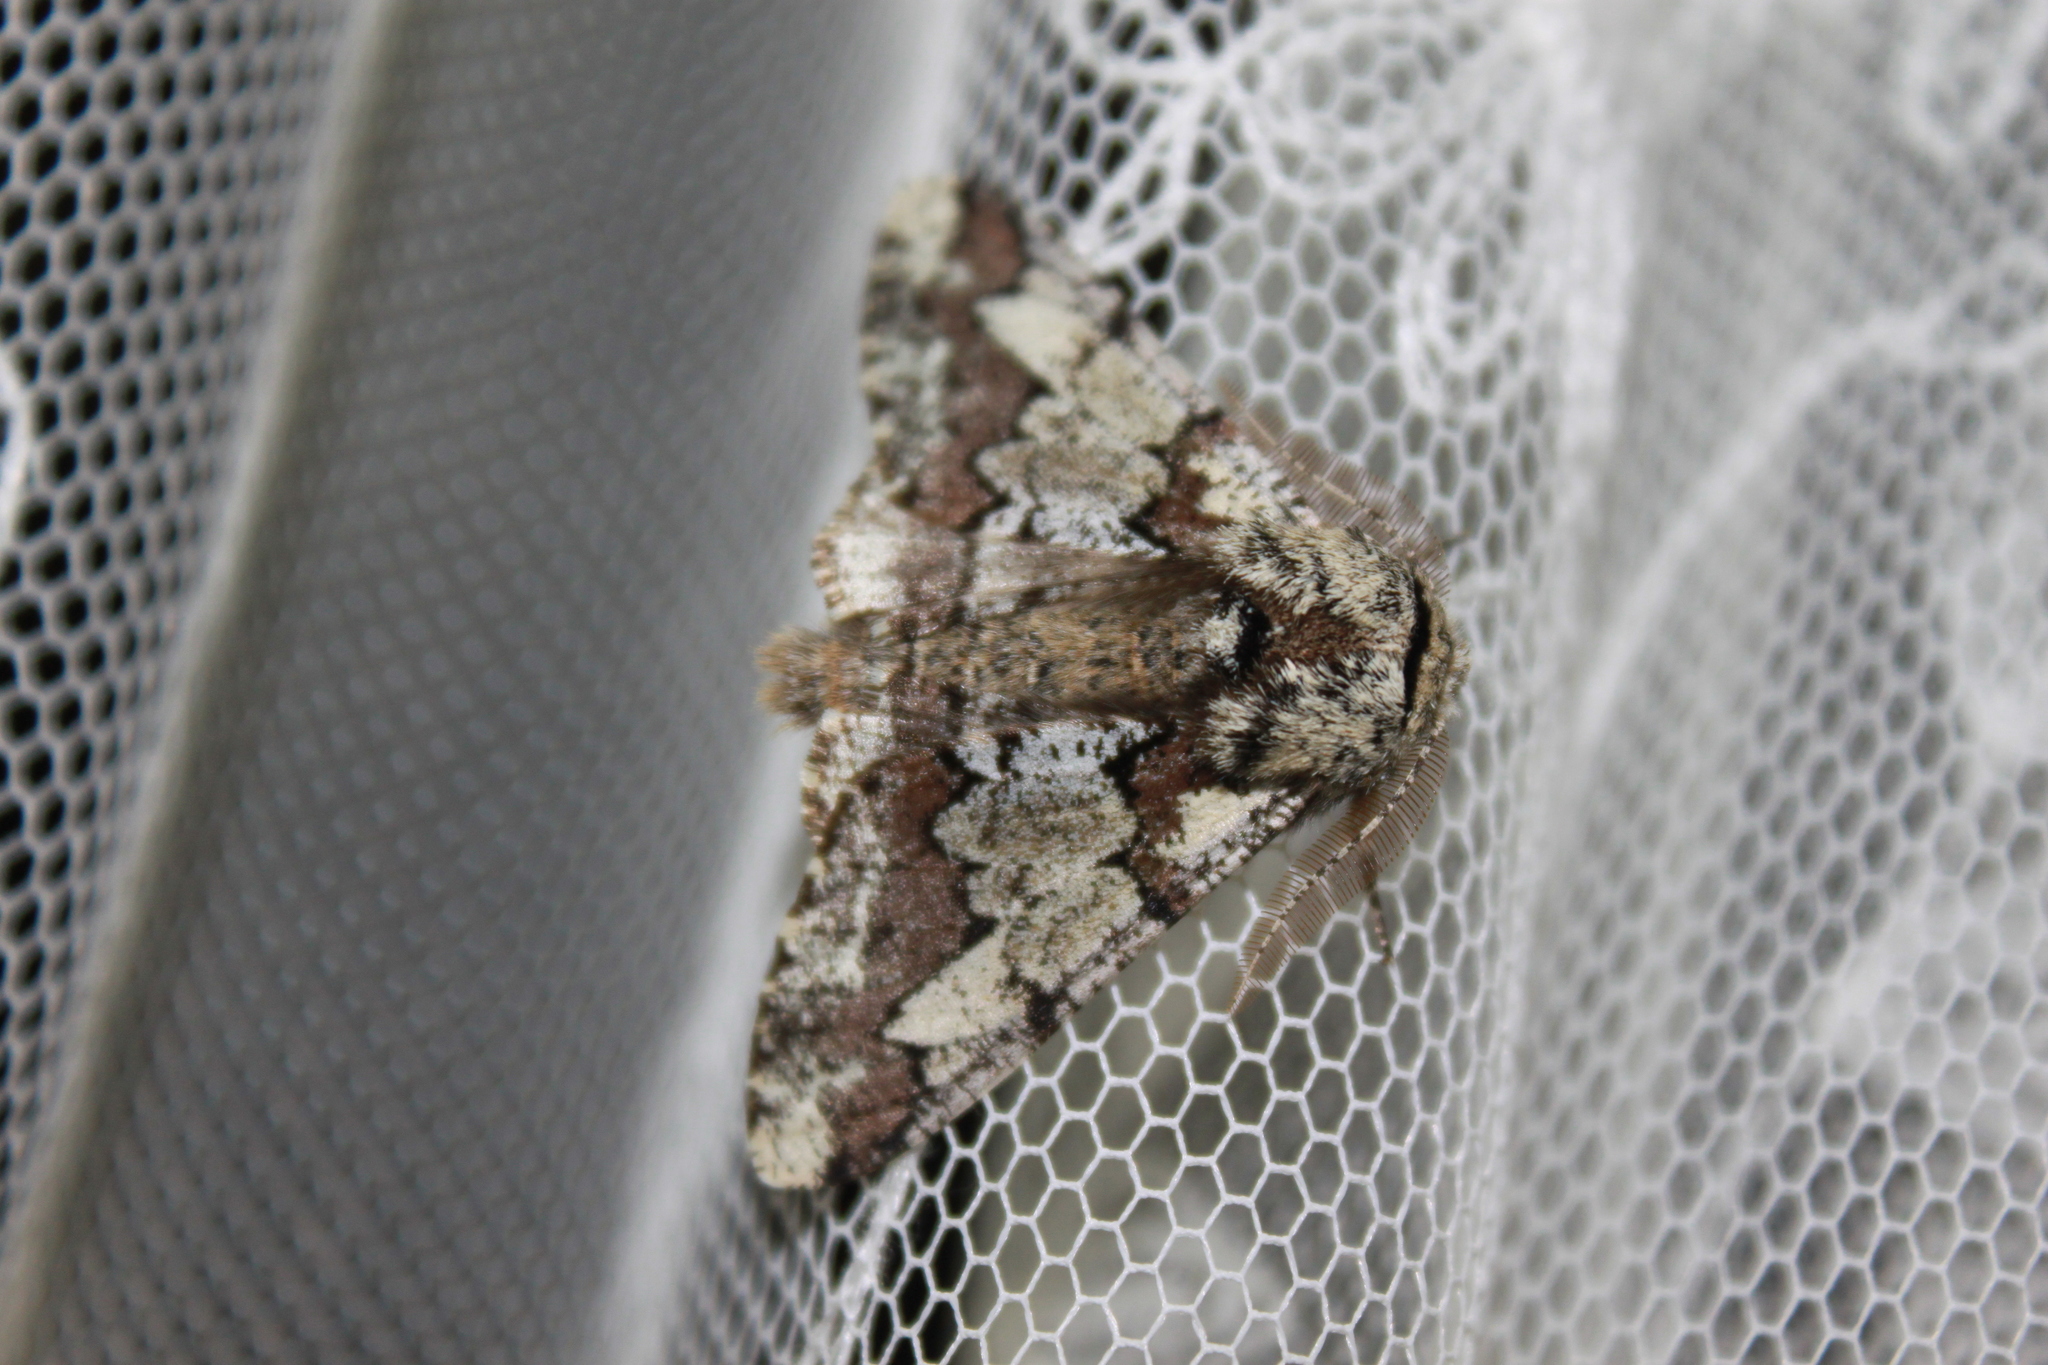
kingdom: Animalia
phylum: Arthropoda
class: Insecta
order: Lepidoptera
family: Geometridae
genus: Biston
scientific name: Biston strataria
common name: Oak beauty
